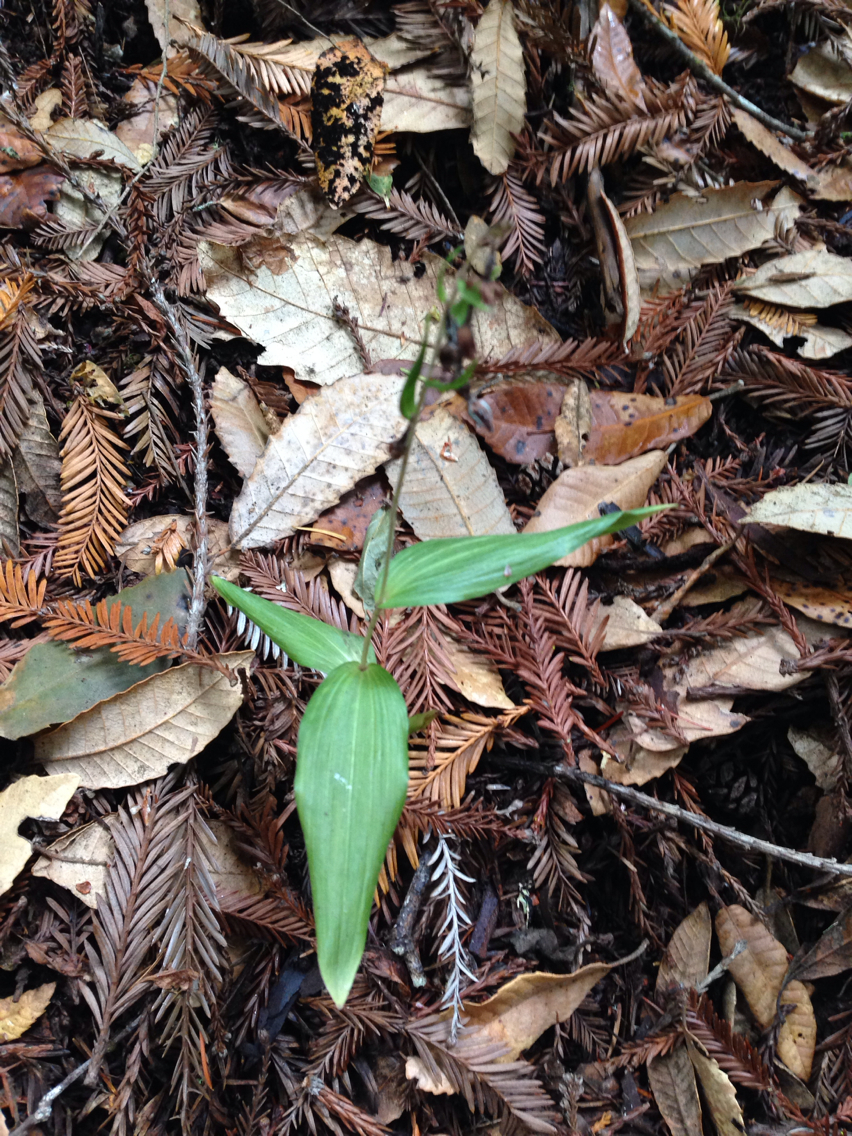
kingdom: Plantae
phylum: Tracheophyta
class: Liliopsida
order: Asparagales
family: Orchidaceae
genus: Epipactis
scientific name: Epipactis helleborine
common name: Broad-leaved helleborine
